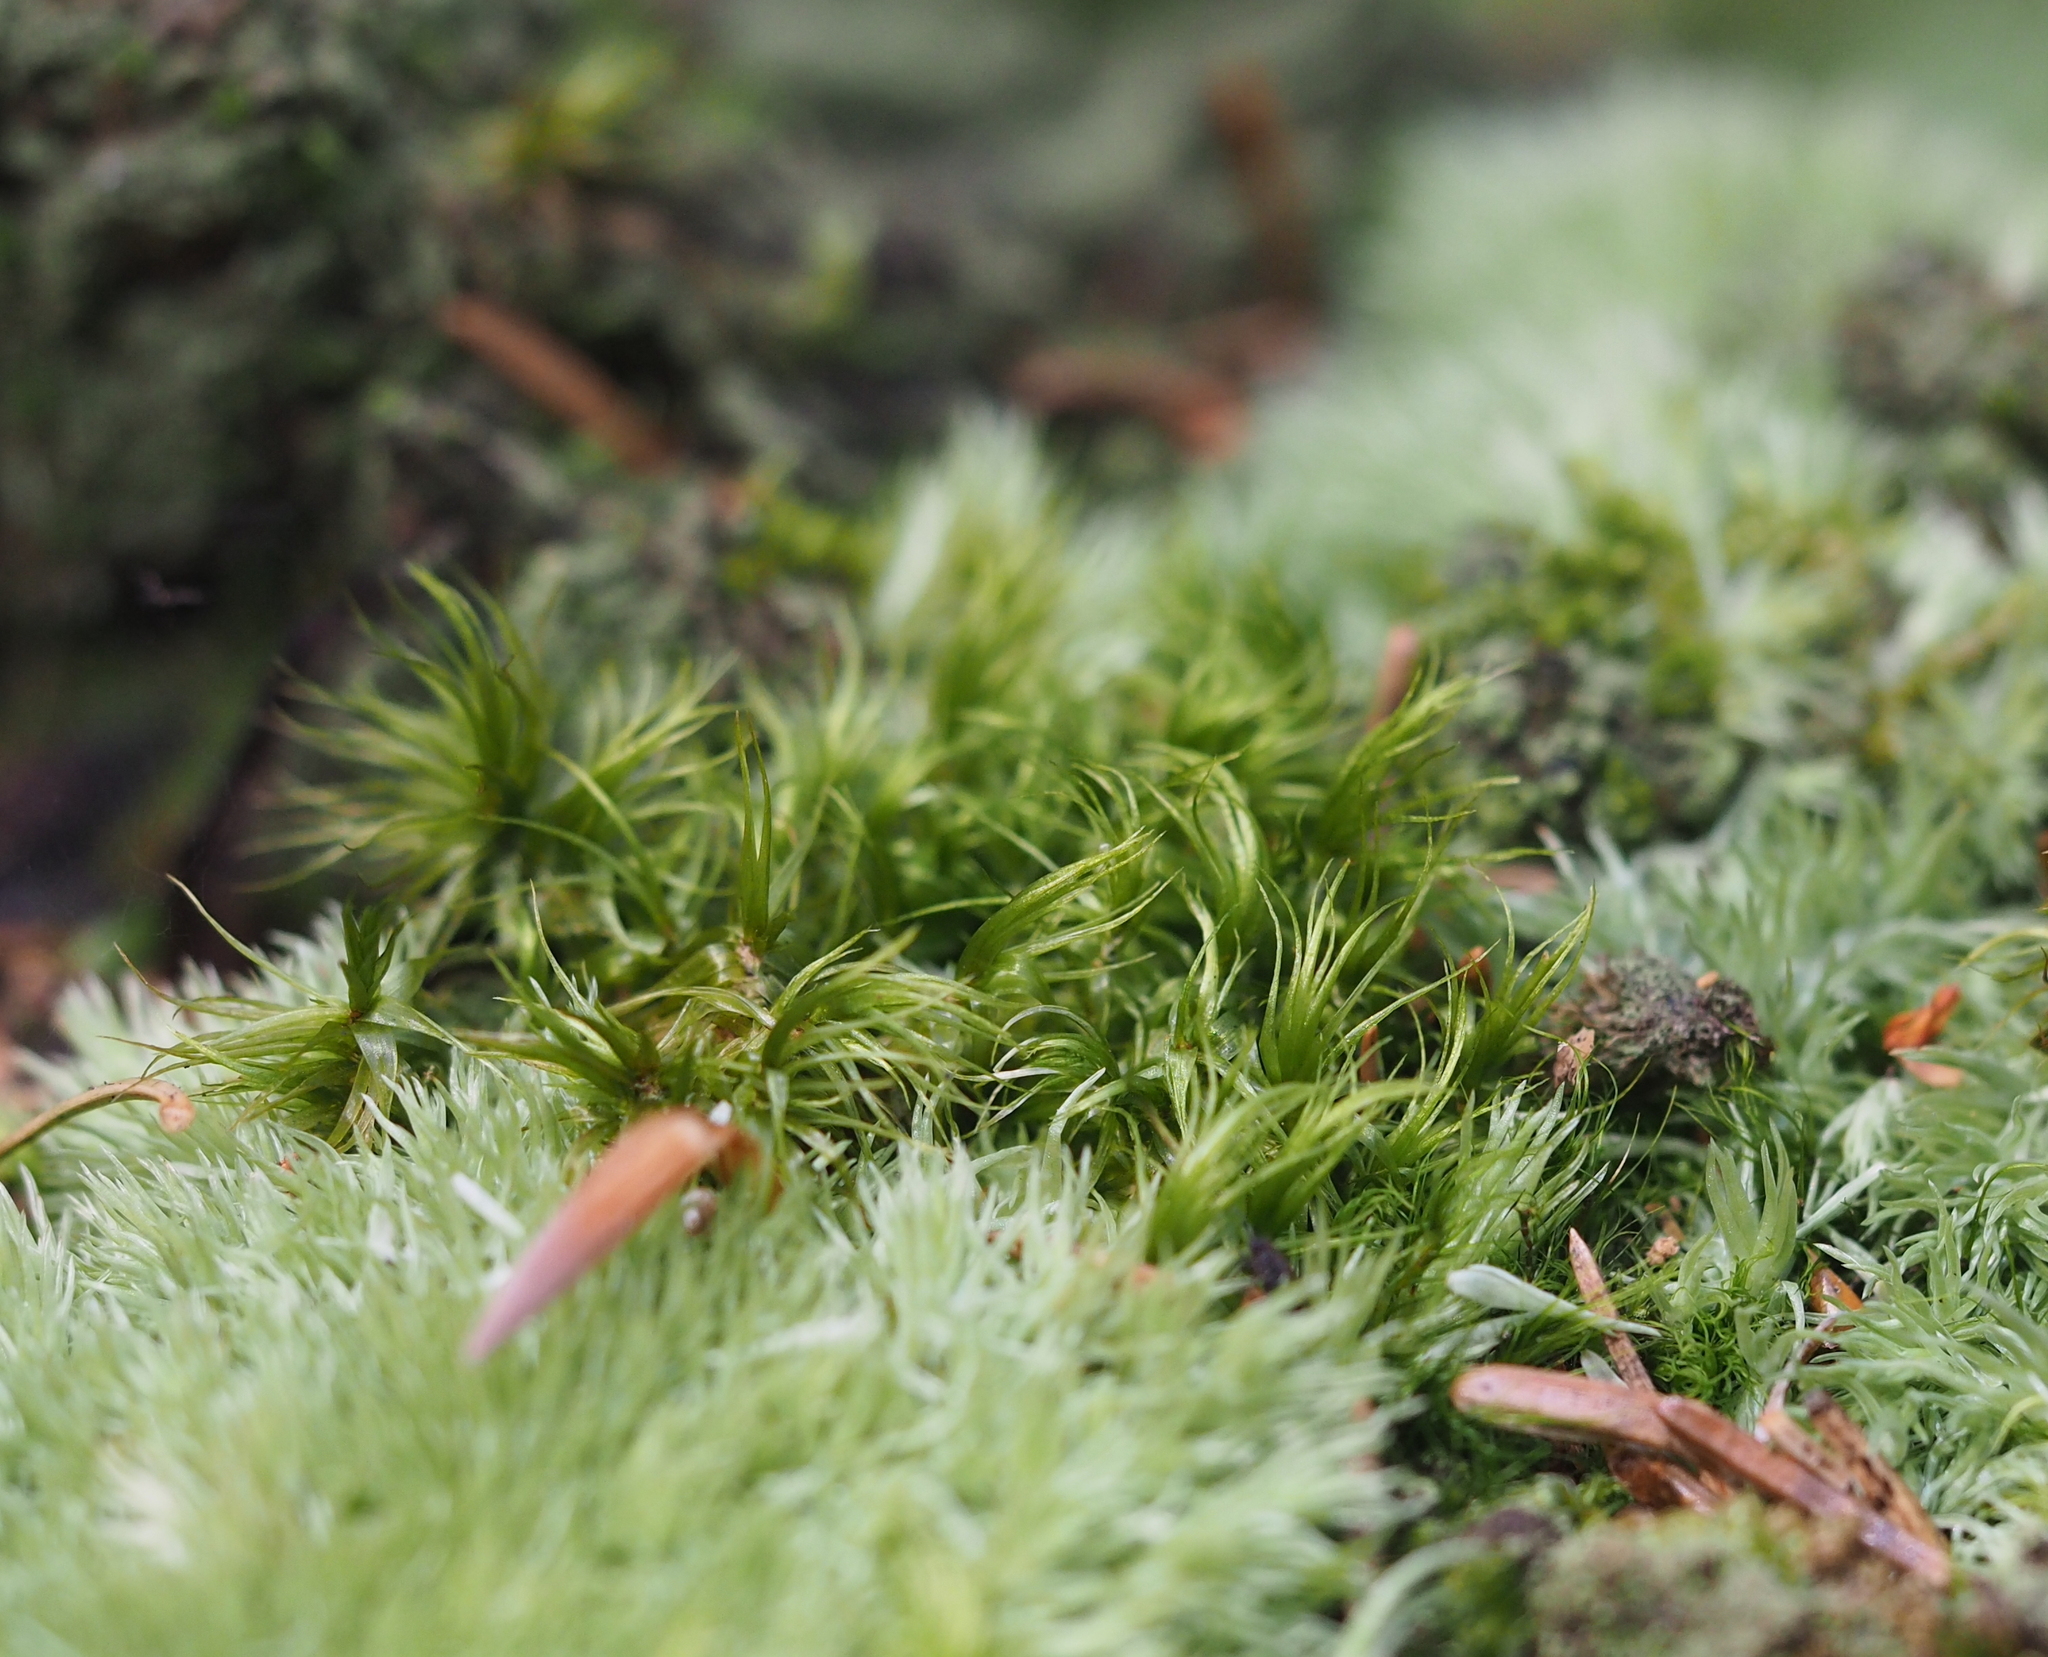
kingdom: Plantae
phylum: Bryophyta
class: Bryopsida
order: Dicranales
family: Dicranaceae
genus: Dicranum
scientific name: Dicranum scoparium
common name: Broom fork-moss
